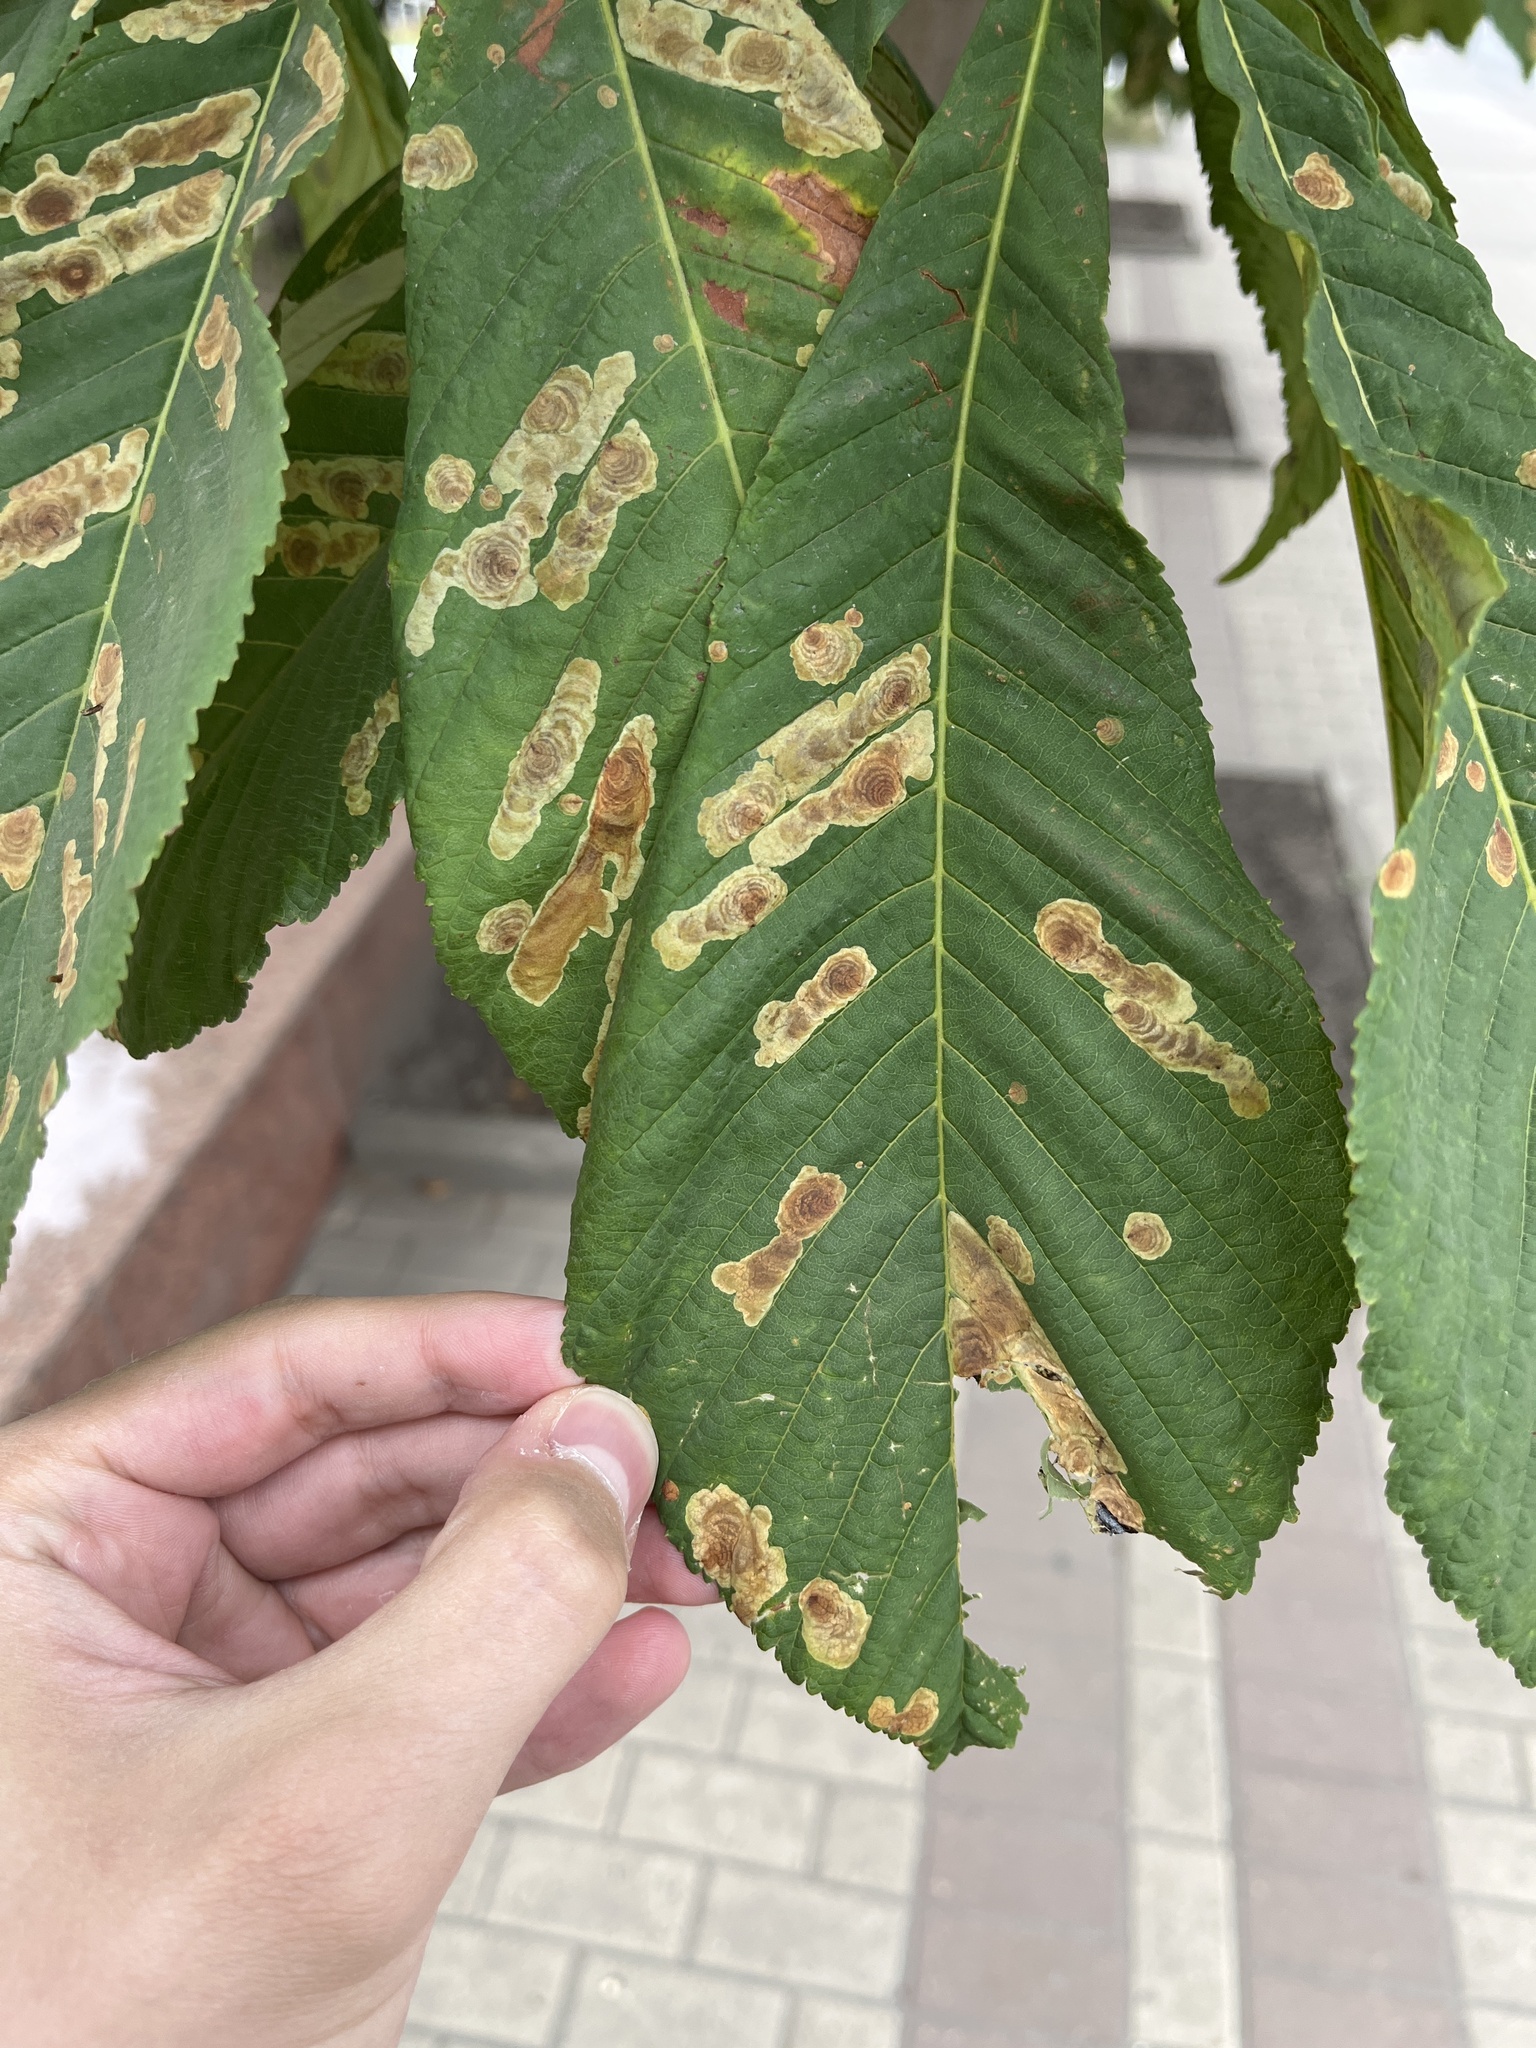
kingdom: Animalia
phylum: Arthropoda
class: Insecta
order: Lepidoptera
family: Gracillariidae
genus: Cameraria
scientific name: Cameraria ohridella
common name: Horse-chestnut leaf-miner
